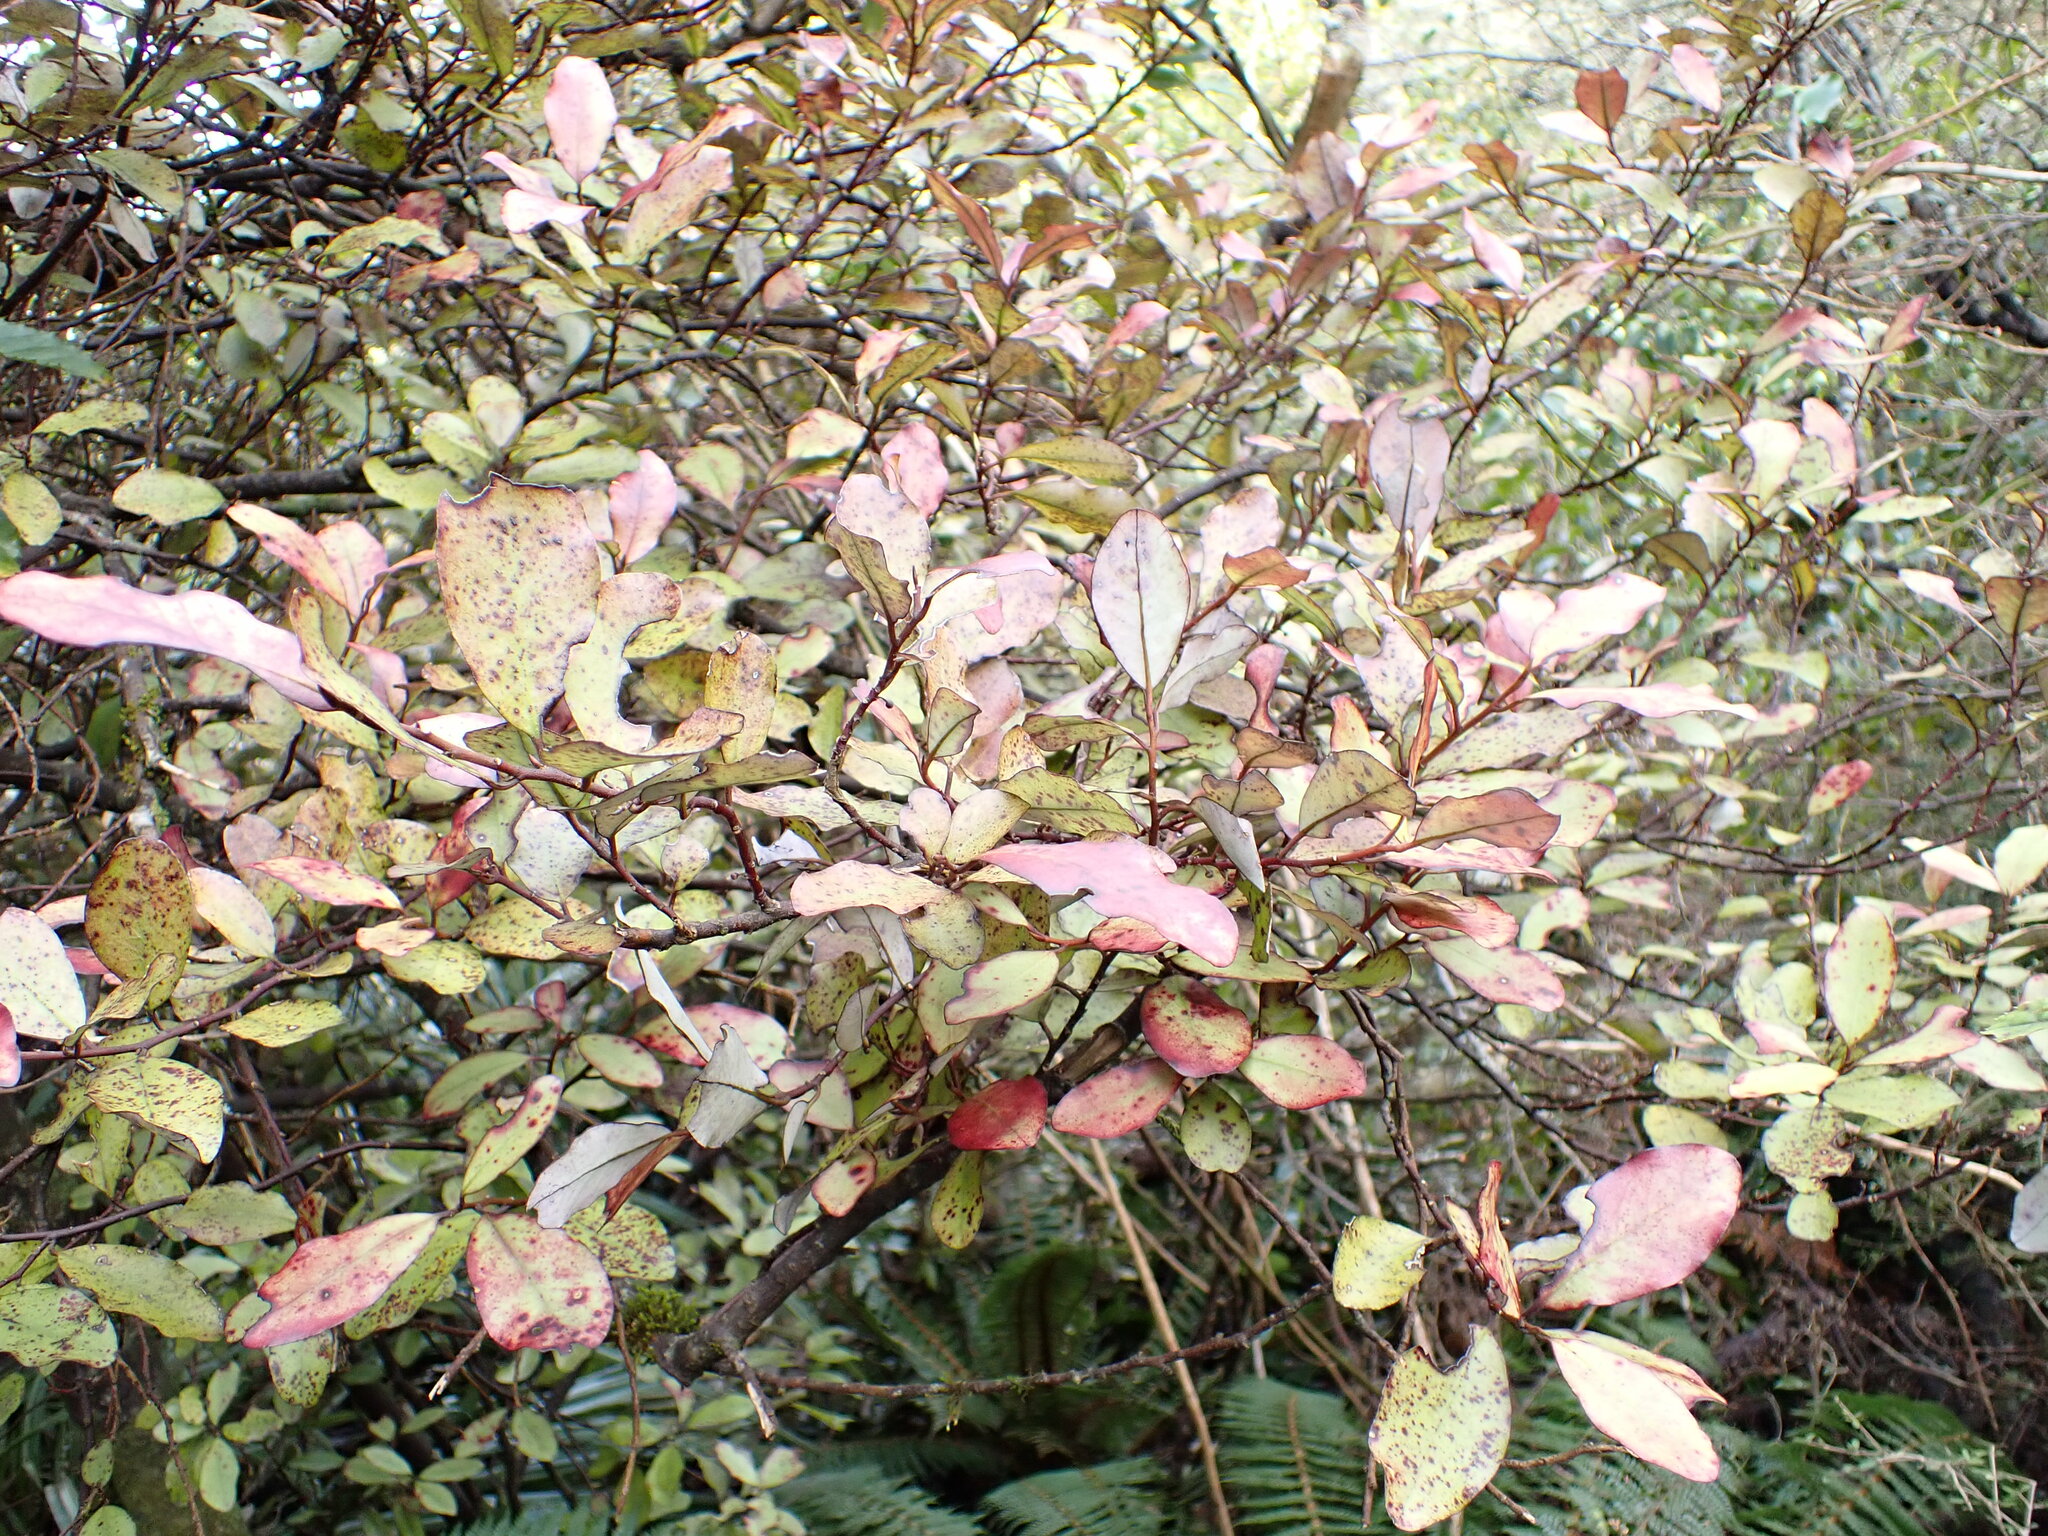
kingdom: Plantae
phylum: Tracheophyta
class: Magnoliopsida
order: Canellales
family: Winteraceae
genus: Pseudowintera
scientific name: Pseudowintera colorata
